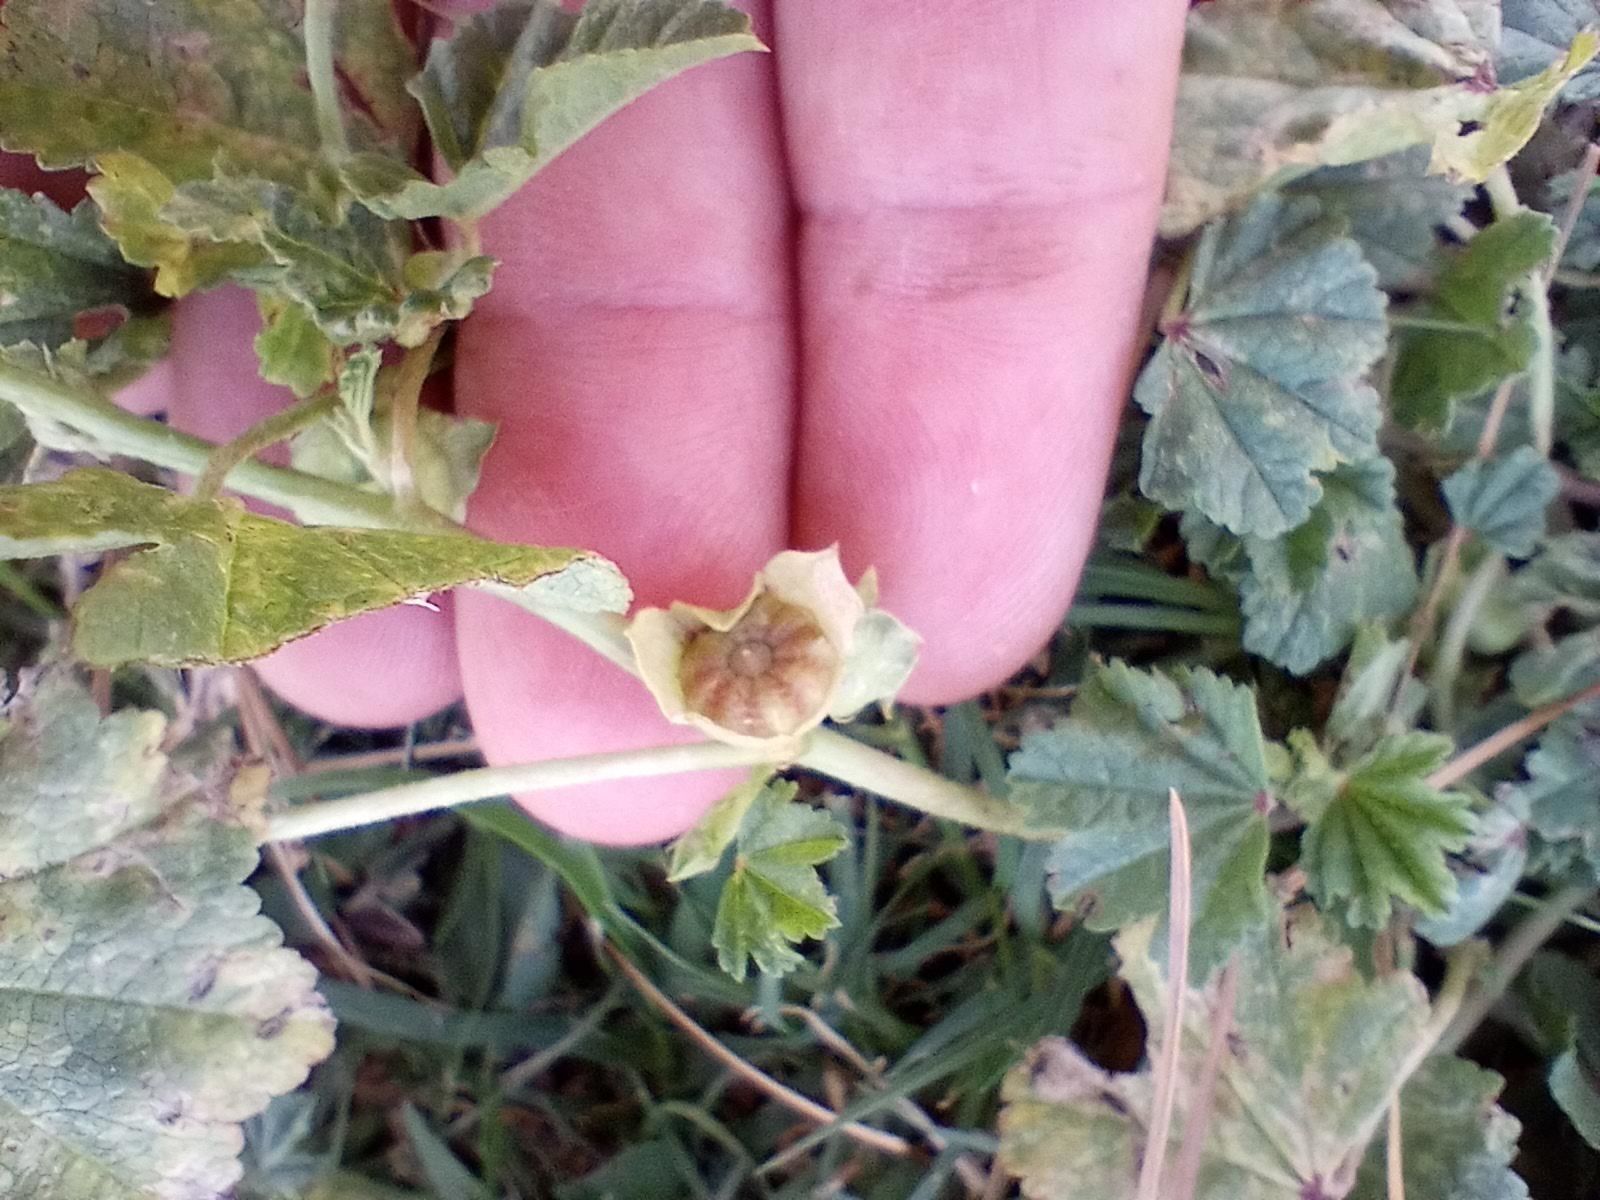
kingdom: Plantae
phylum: Tracheophyta
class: Magnoliopsida
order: Malvales
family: Malvaceae
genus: Malva
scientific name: Malva parviflora
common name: Least mallow
